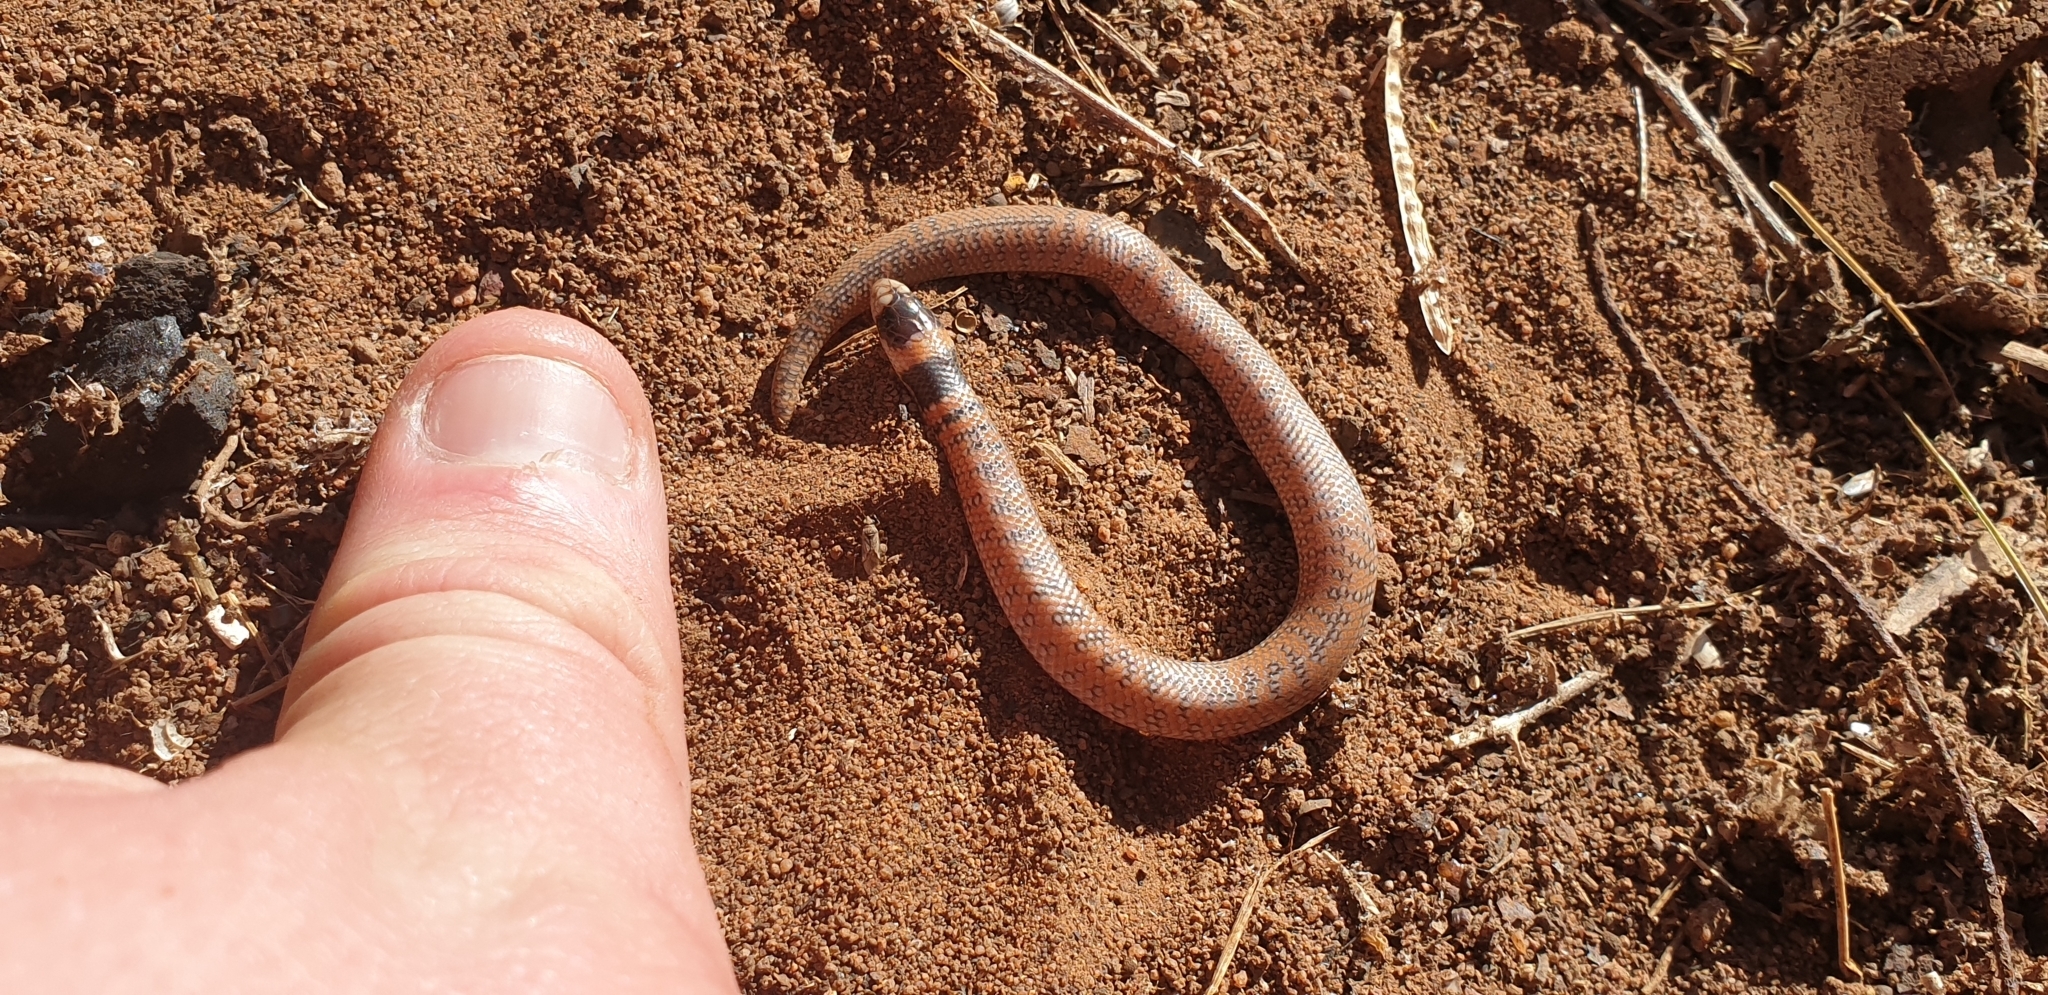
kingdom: Animalia
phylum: Chordata
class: Squamata
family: Elapidae
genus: Brachyurophis
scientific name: Brachyurophis australis
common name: Australian coral snake
